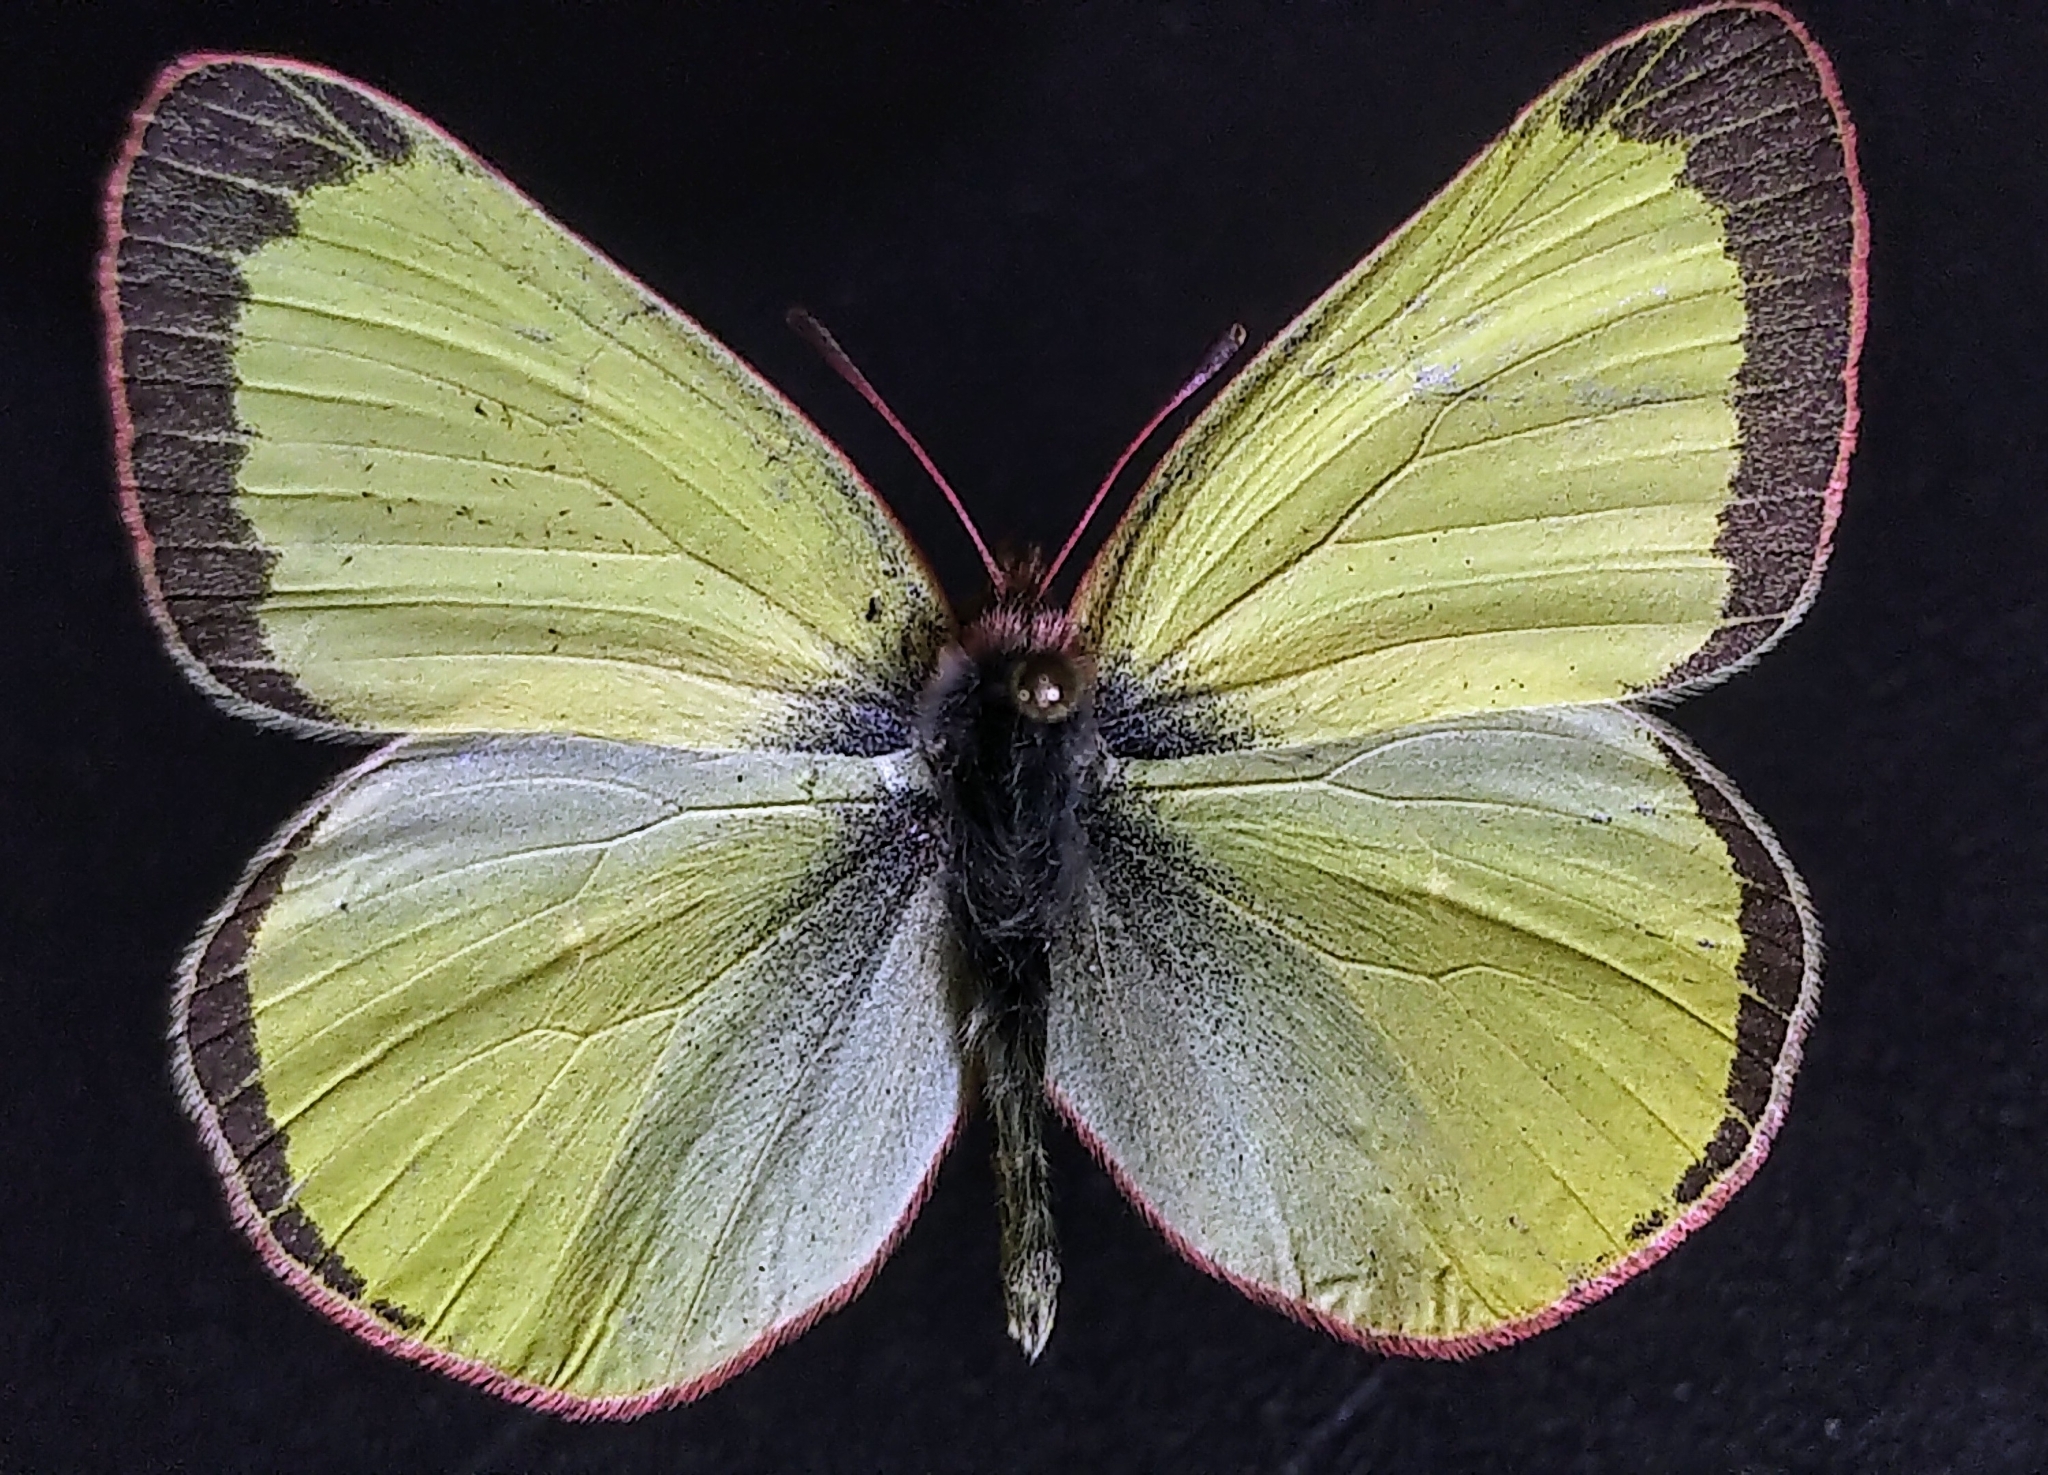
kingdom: Animalia
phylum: Arthropoda
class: Insecta
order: Lepidoptera
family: Pieridae
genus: Colias
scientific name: Colias pelidne
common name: Blueberry sulphur
